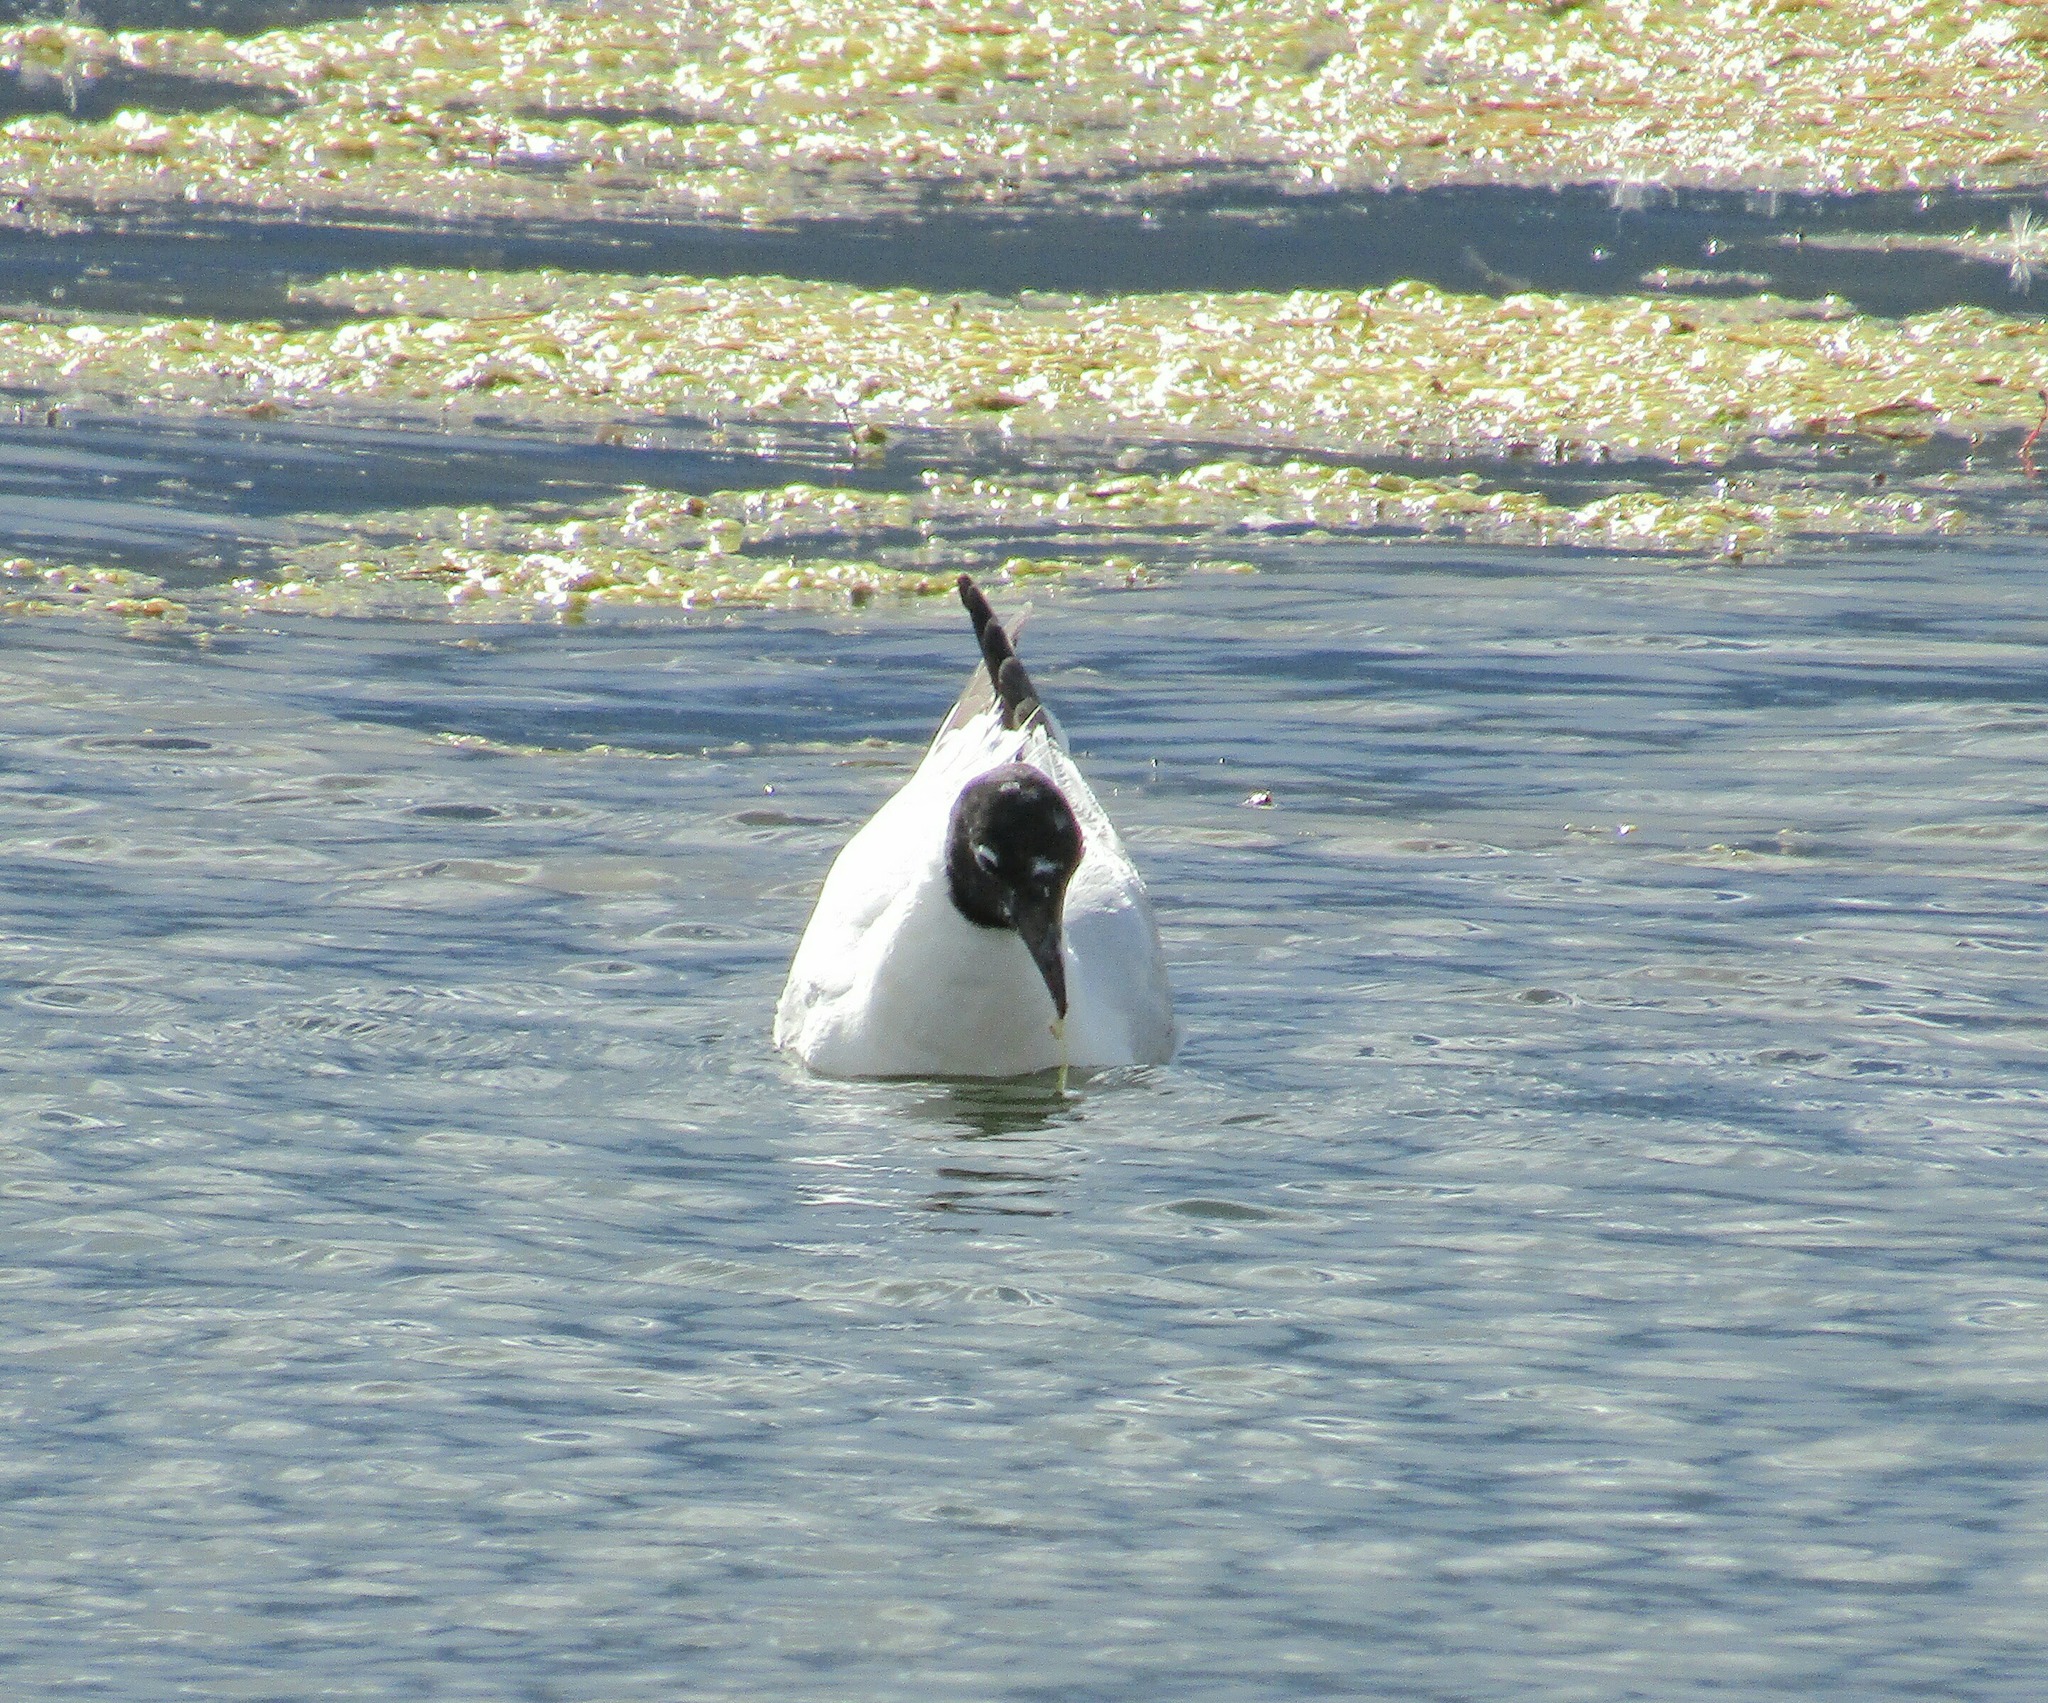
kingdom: Animalia
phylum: Chordata
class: Aves
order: Charadriiformes
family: Laridae
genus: Chroicocephalus
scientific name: Chroicocephalus serranus
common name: Andean gull
